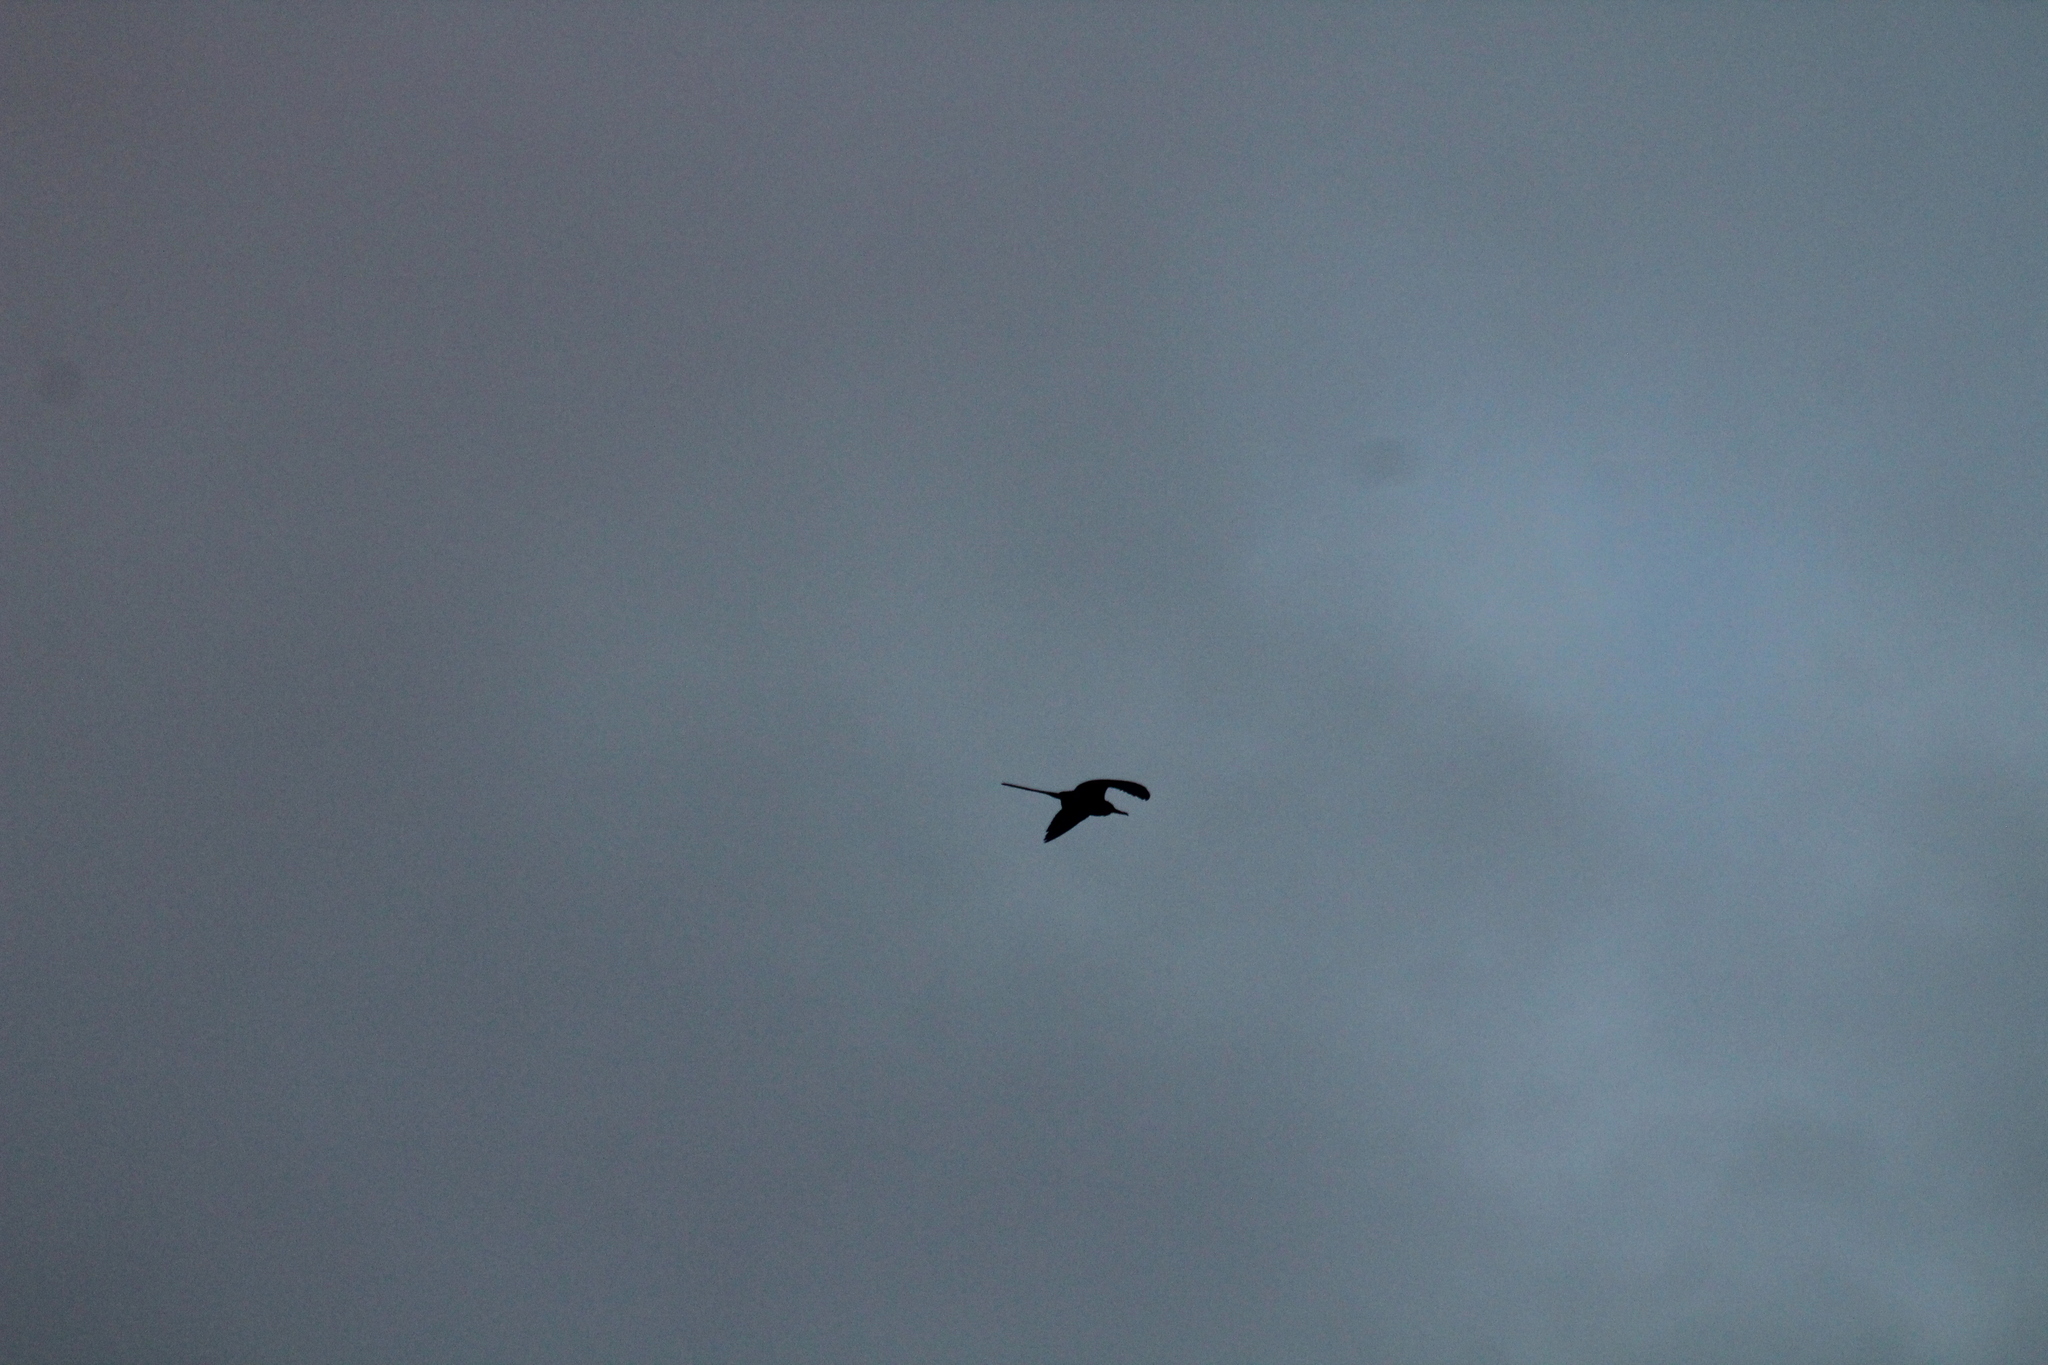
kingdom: Animalia
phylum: Chordata
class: Aves
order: Suliformes
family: Fregatidae
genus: Fregata
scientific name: Fregata magnificens
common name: Magnificent frigatebird
